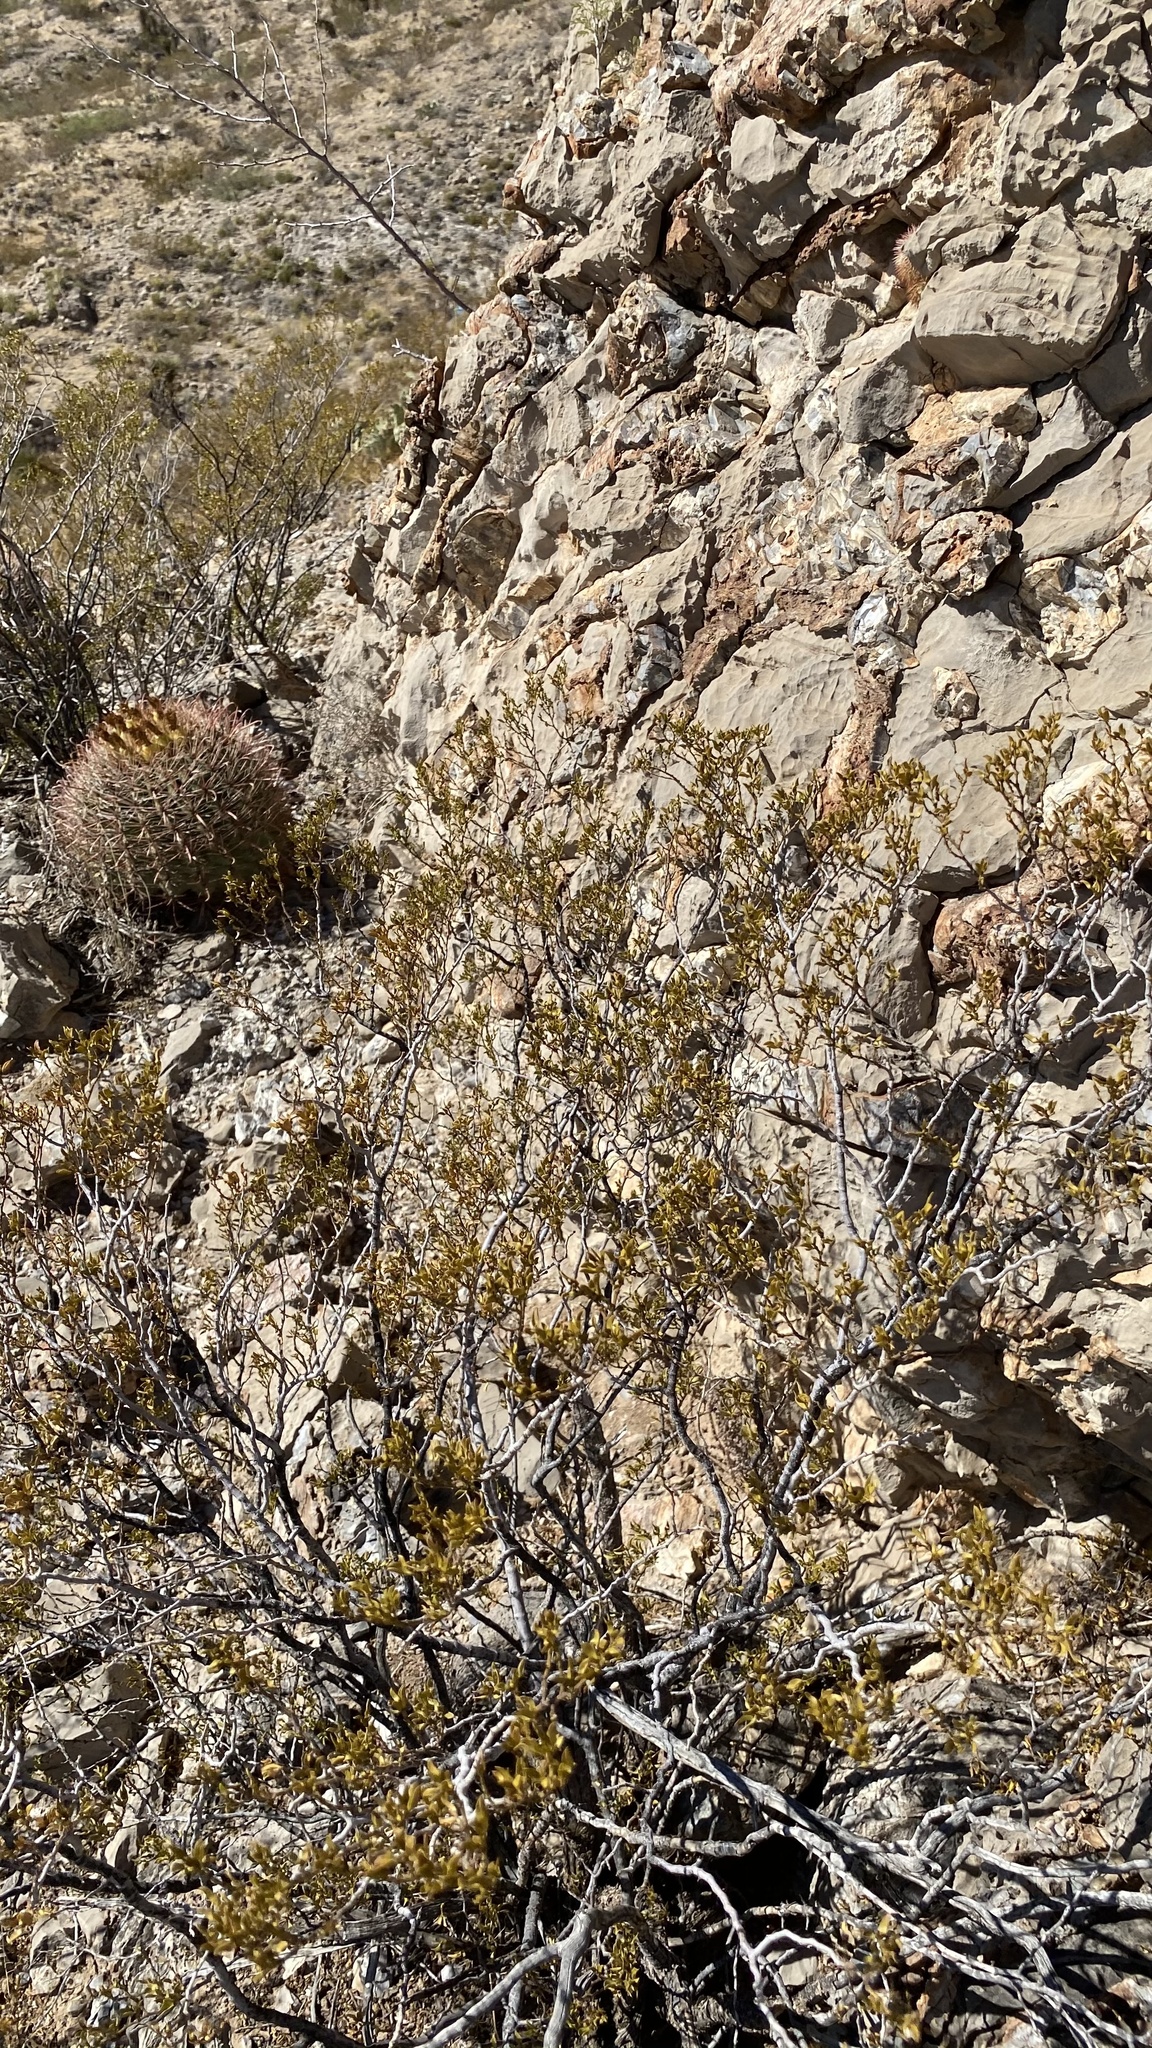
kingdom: Plantae
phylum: Tracheophyta
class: Magnoliopsida
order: Zygophyllales
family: Zygophyllaceae
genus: Larrea
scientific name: Larrea tridentata
